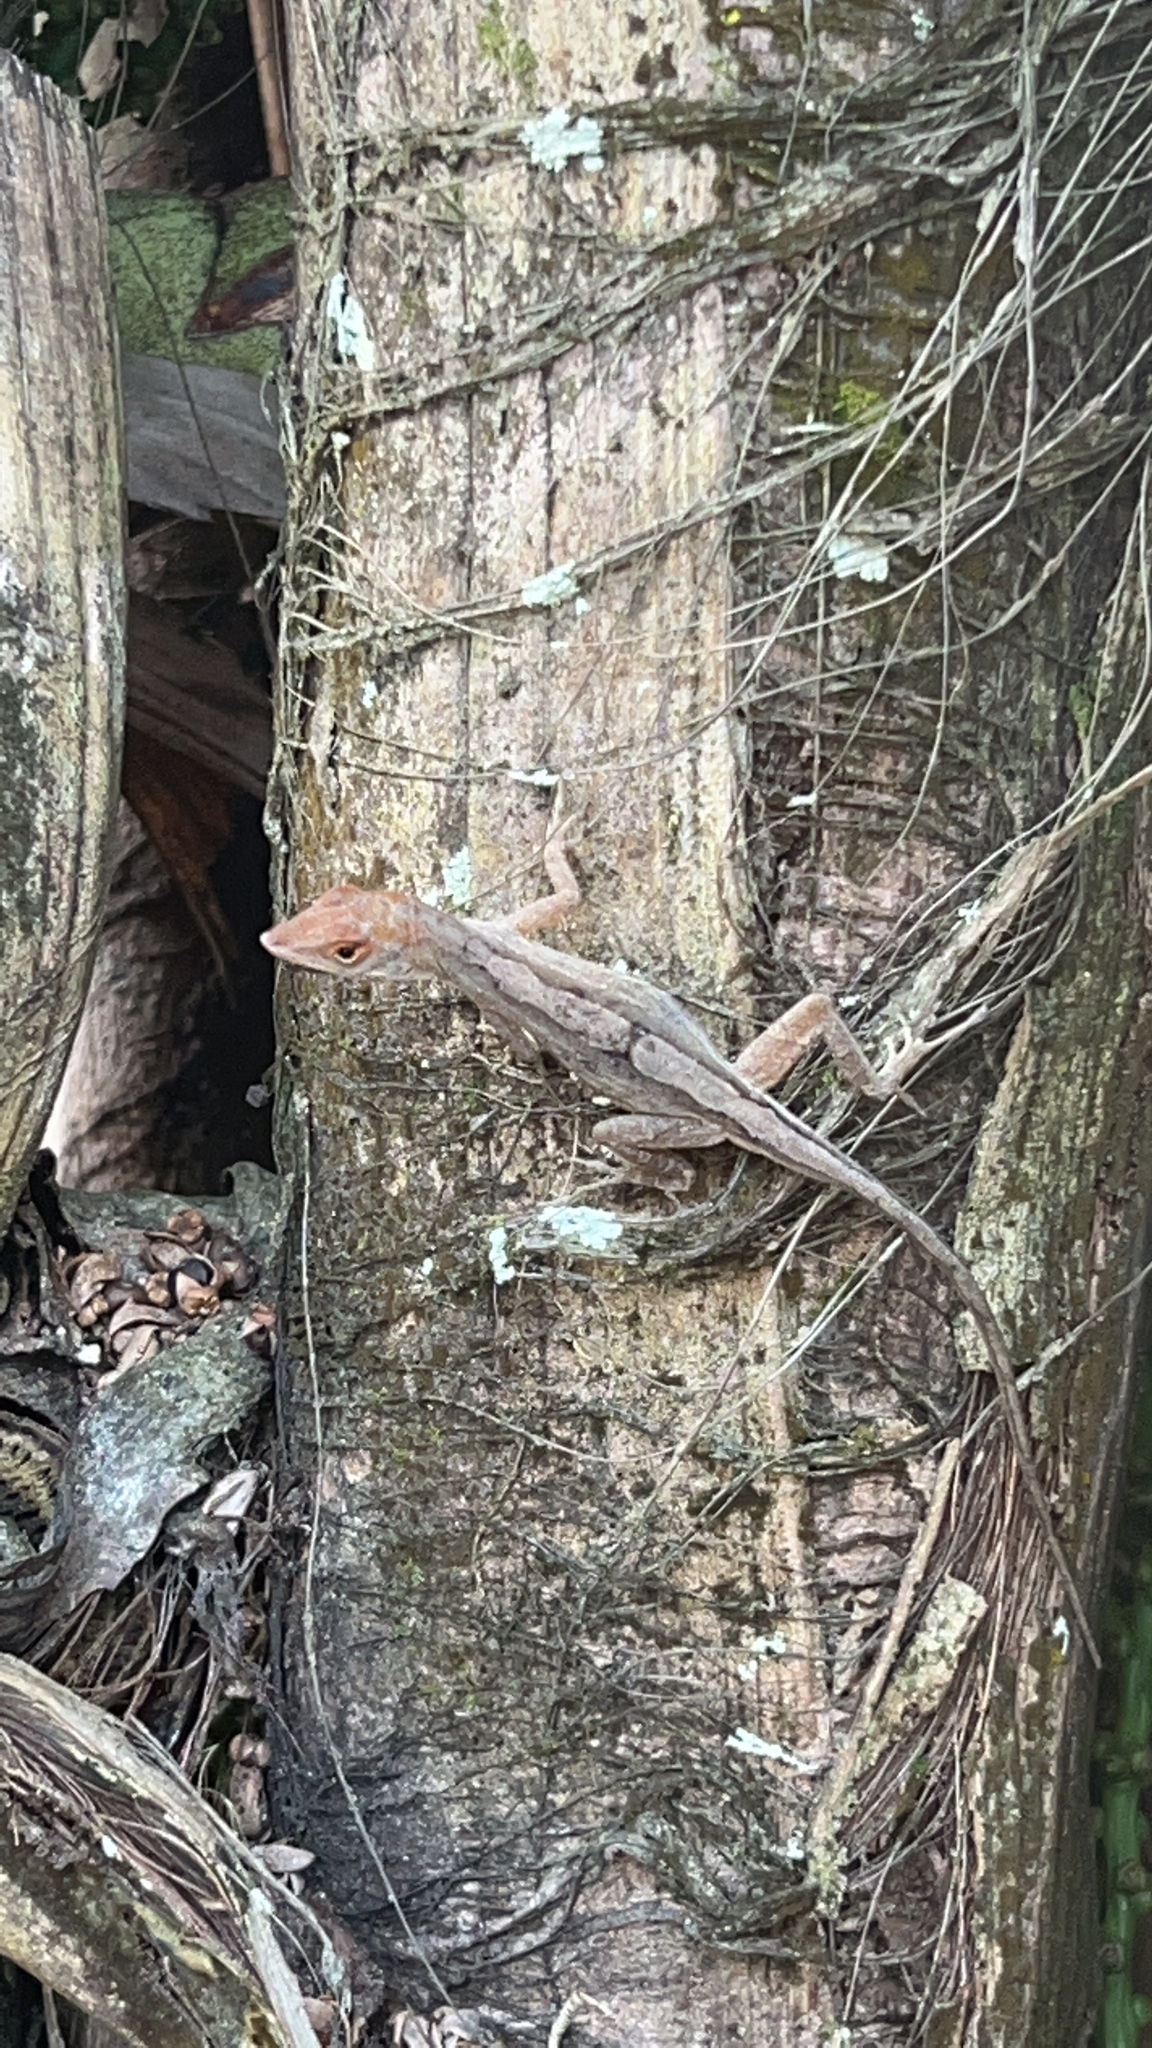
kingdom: Animalia
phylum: Chordata
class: Squamata
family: Dactyloidae
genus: Anolis
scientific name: Anolis sagrei
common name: Brown anole
